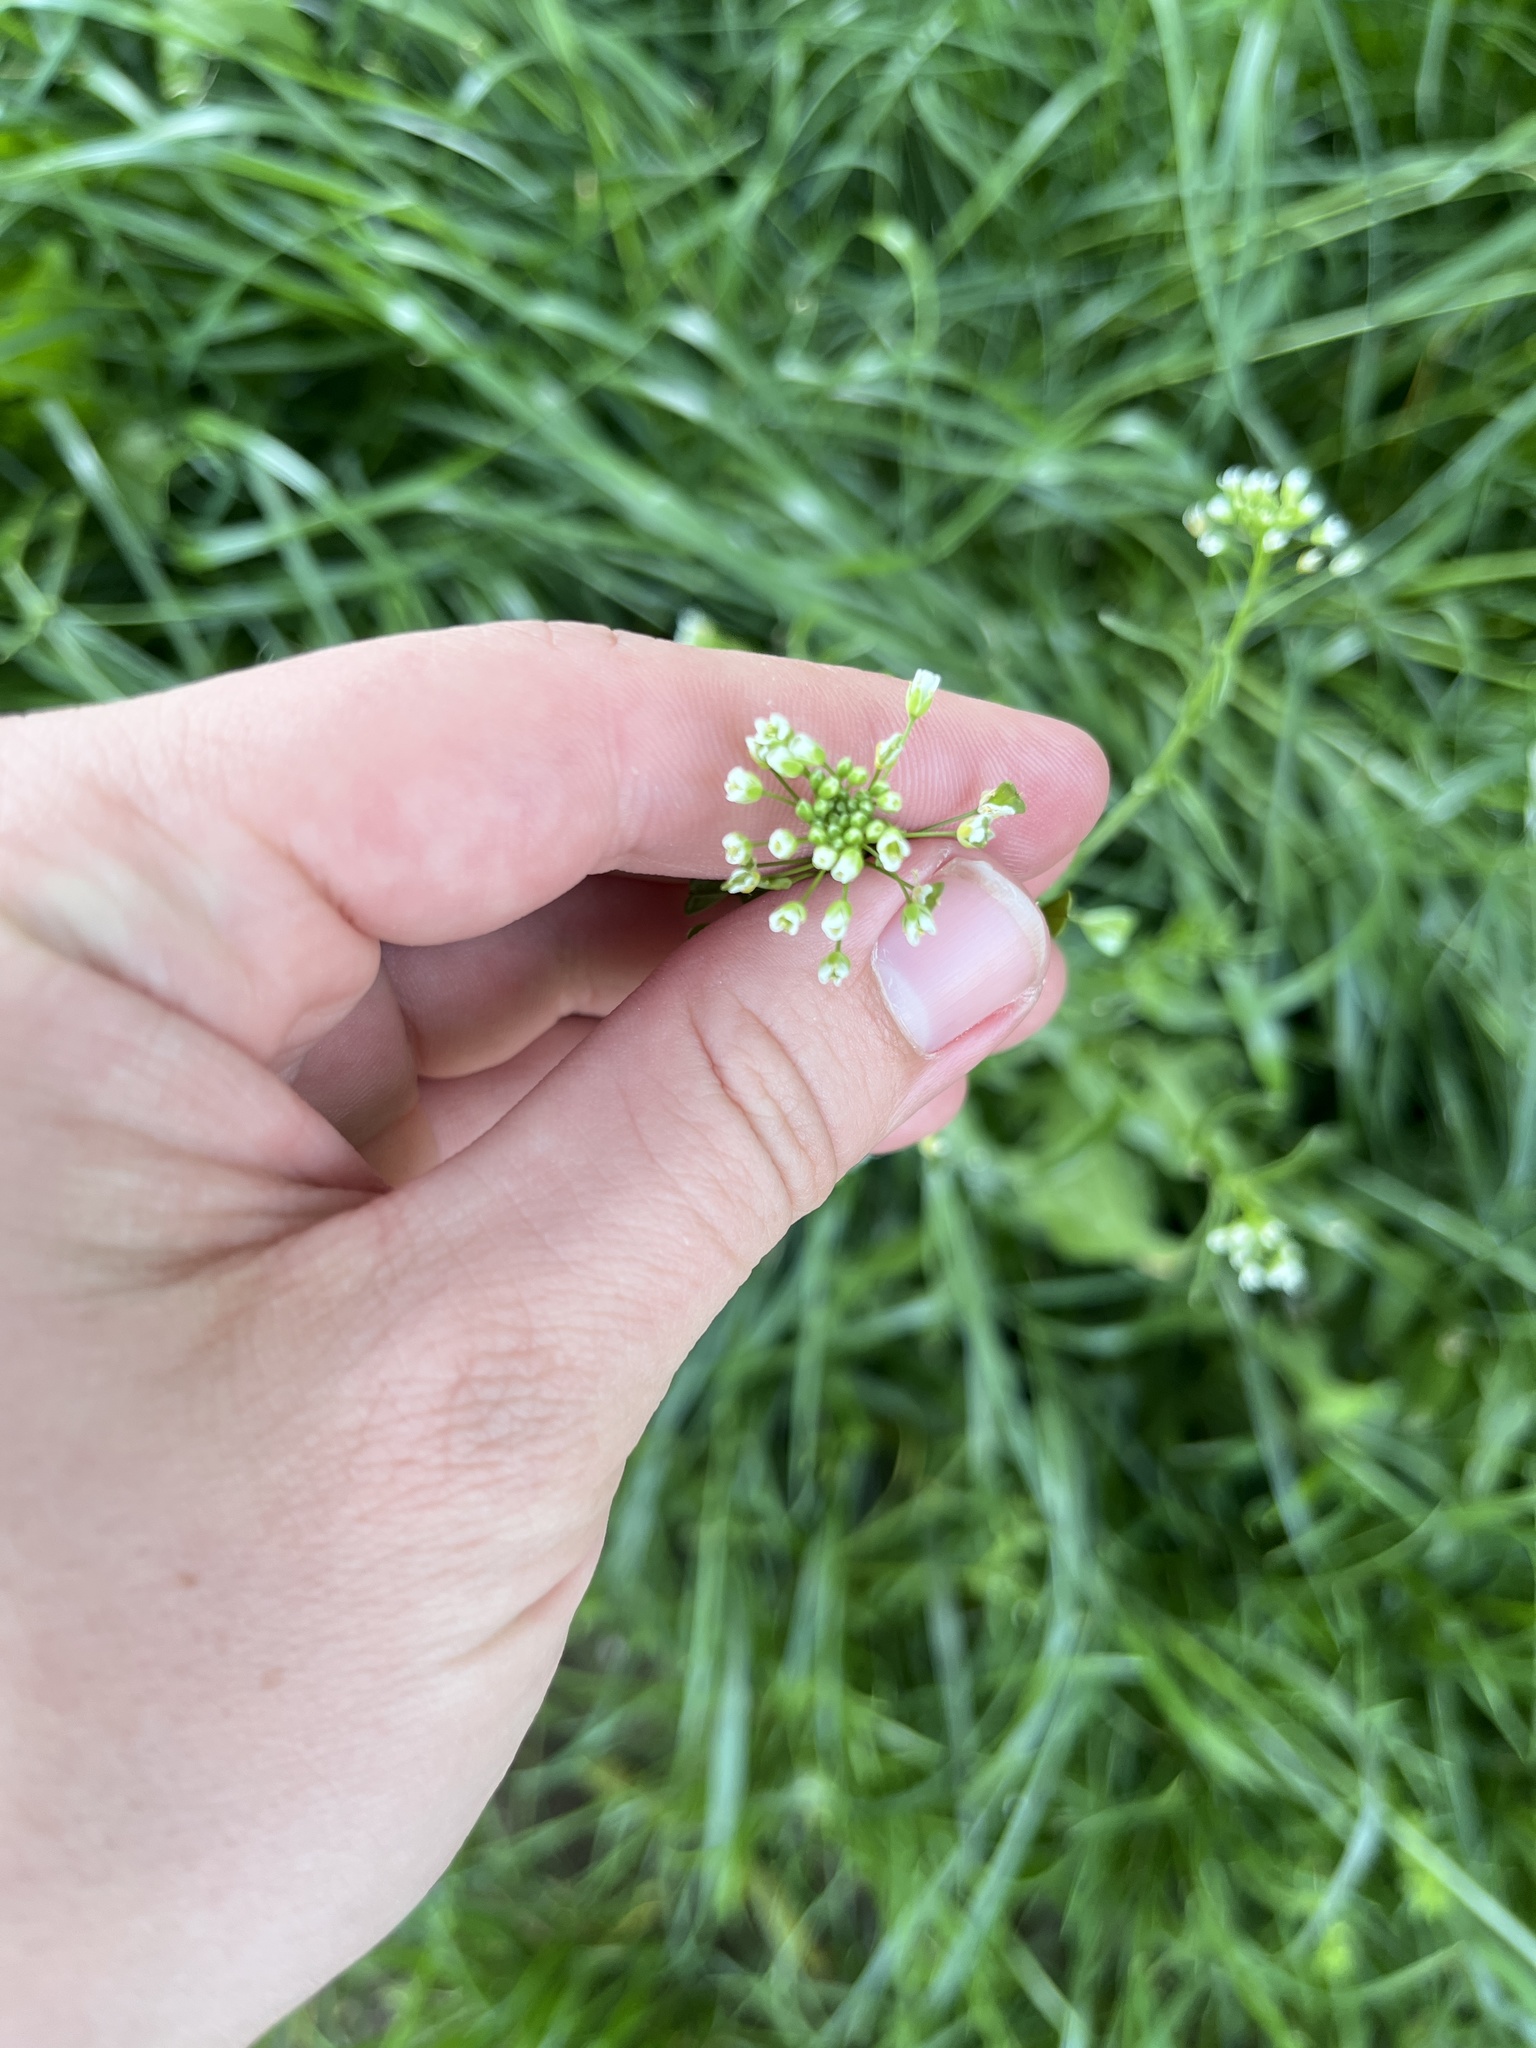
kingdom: Plantae
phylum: Tracheophyta
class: Magnoliopsida
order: Brassicales
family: Brassicaceae
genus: Capsella
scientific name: Capsella bursa-pastoris
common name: Shepherd's purse
